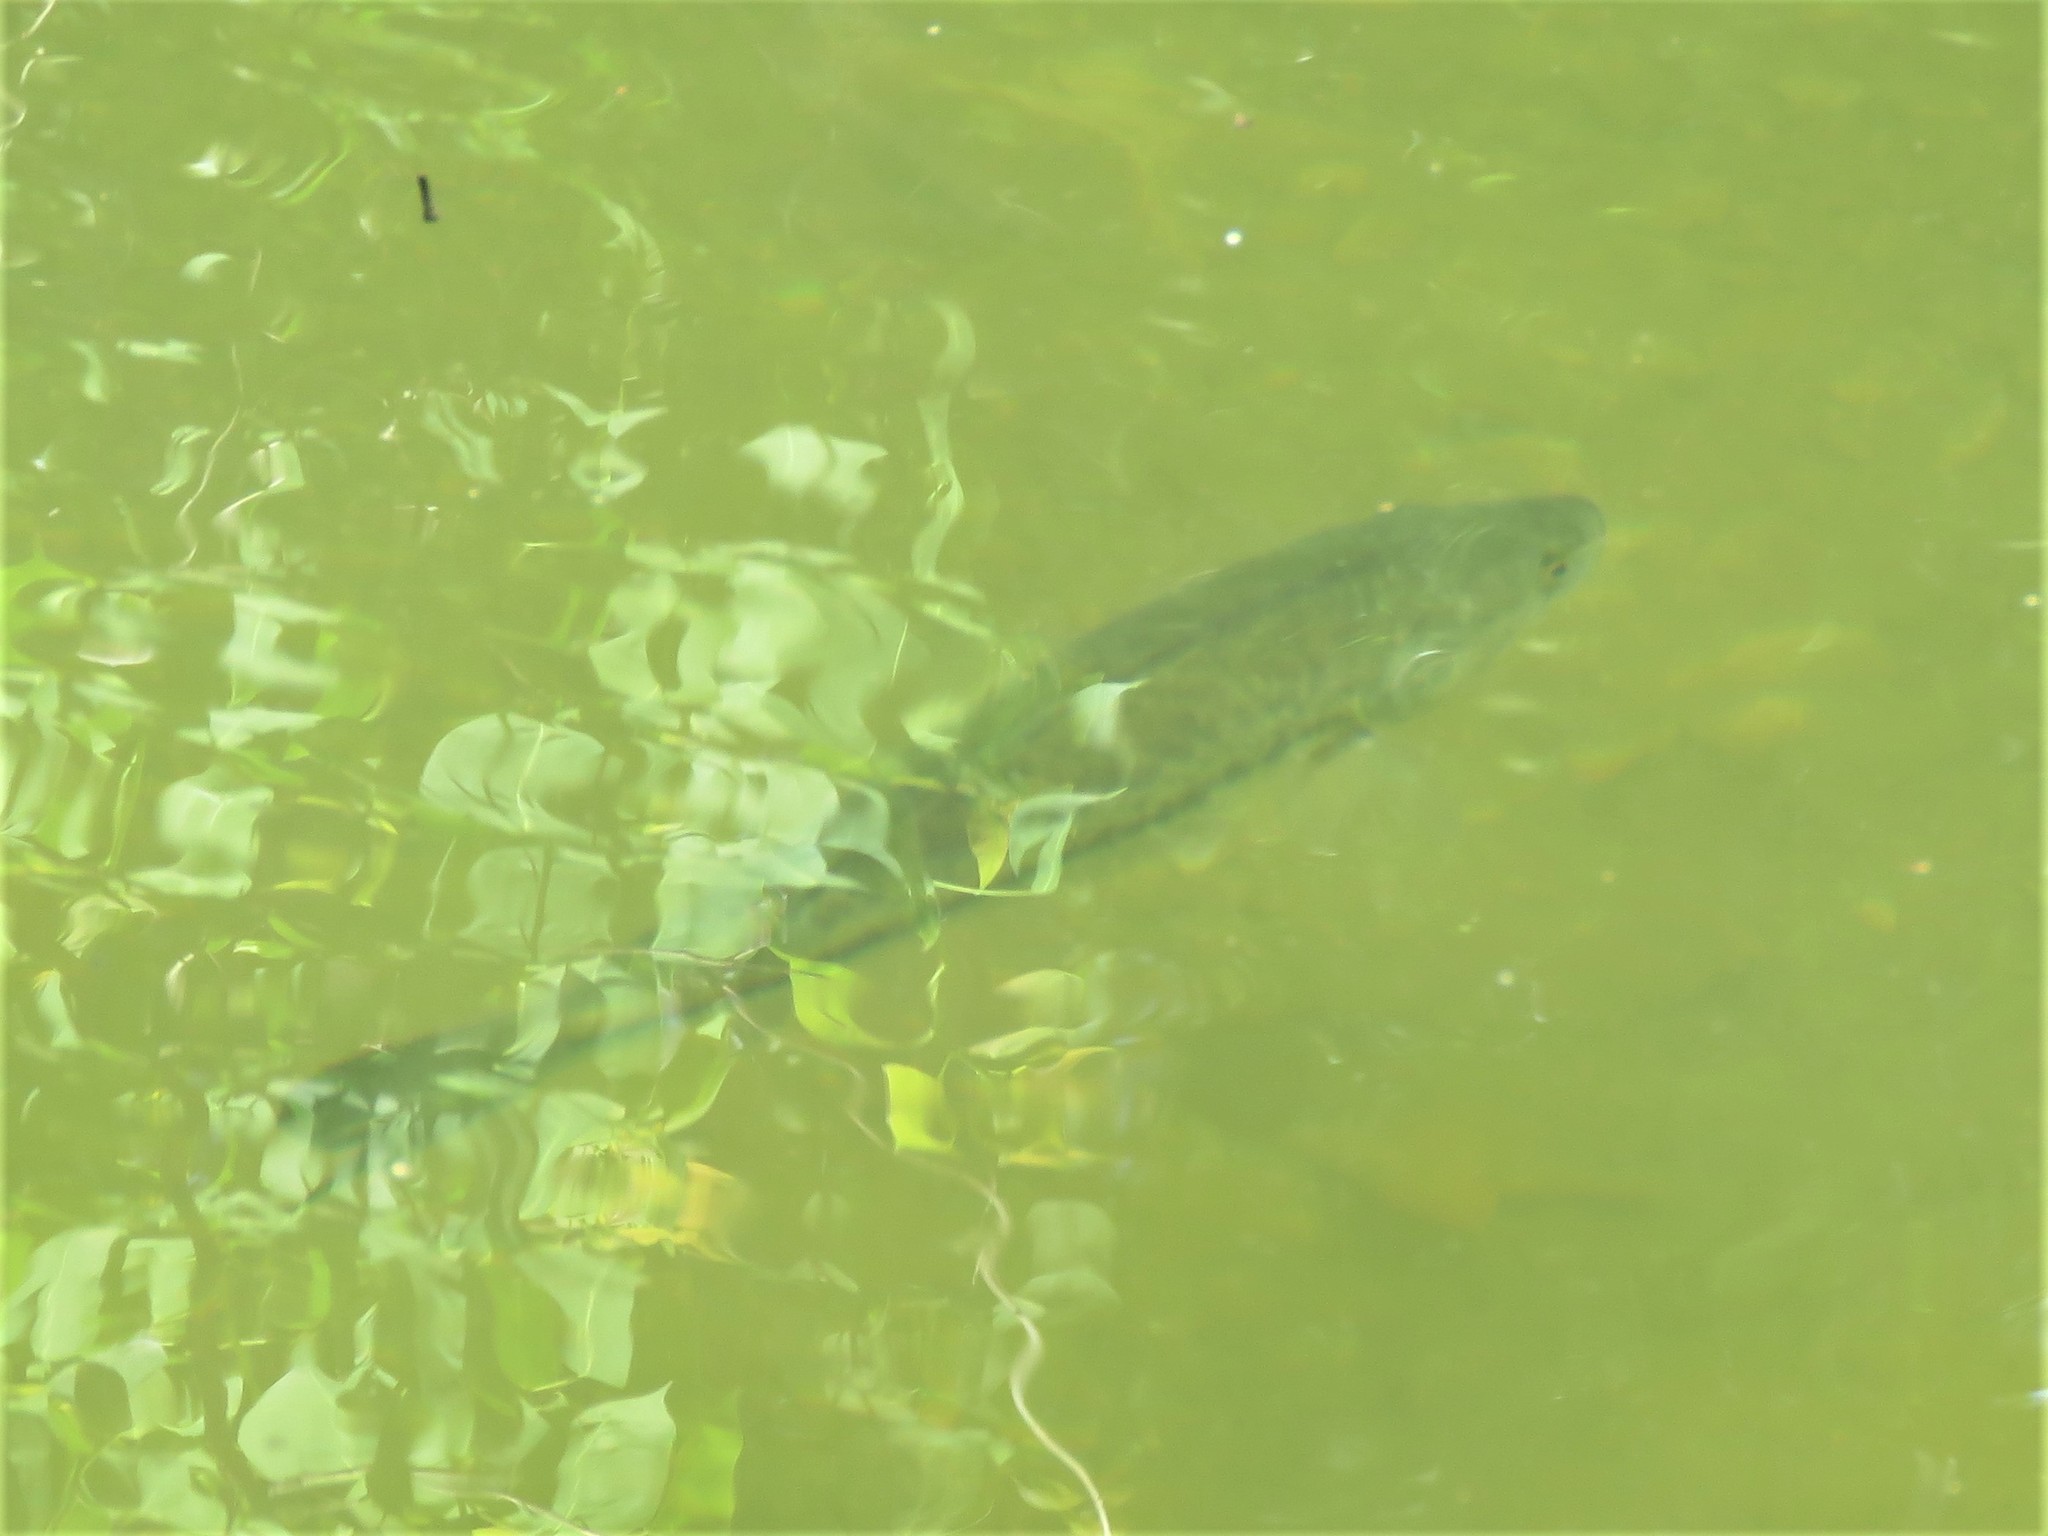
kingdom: Animalia
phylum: Chordata
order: Perciformes
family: Centrarchidae
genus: Micropterus
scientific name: Micropterus
